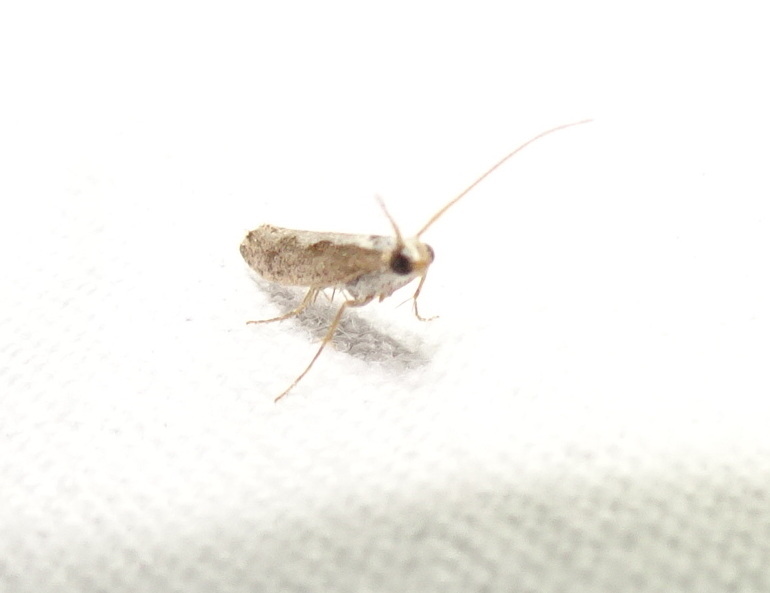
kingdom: Animalia
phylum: Arthropoda
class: Insecta
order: Lepidoptera
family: Plutellidae
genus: Plutella
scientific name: Plutella xylostella
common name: Diamond-back moth
